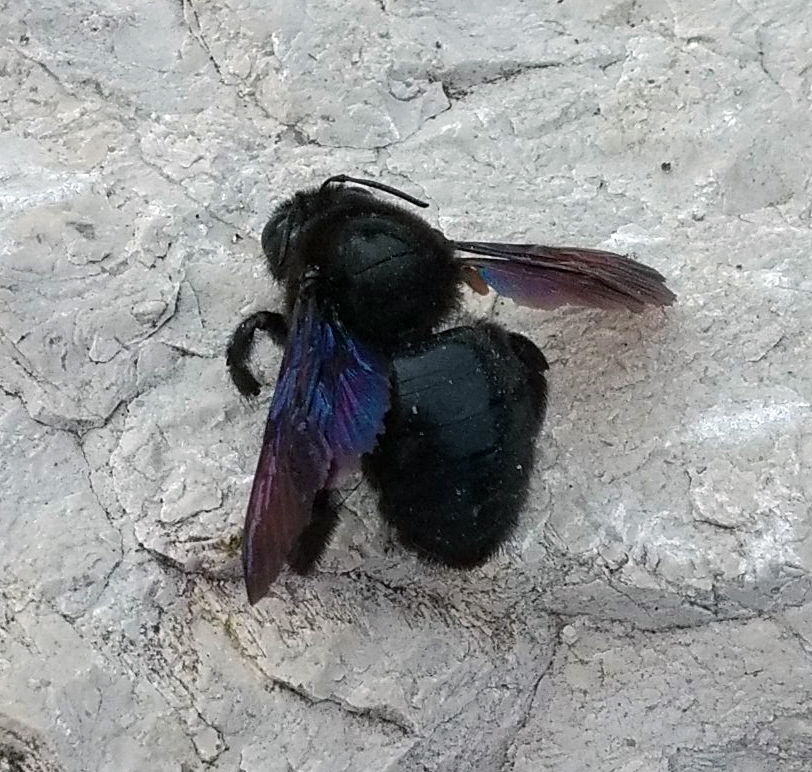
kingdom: Animalia
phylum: Arthropoda
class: Insecta
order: Hymenoptera
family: Apidae
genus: Xylocopa
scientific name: Xylocopa violacea
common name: Violet carpenter bee
